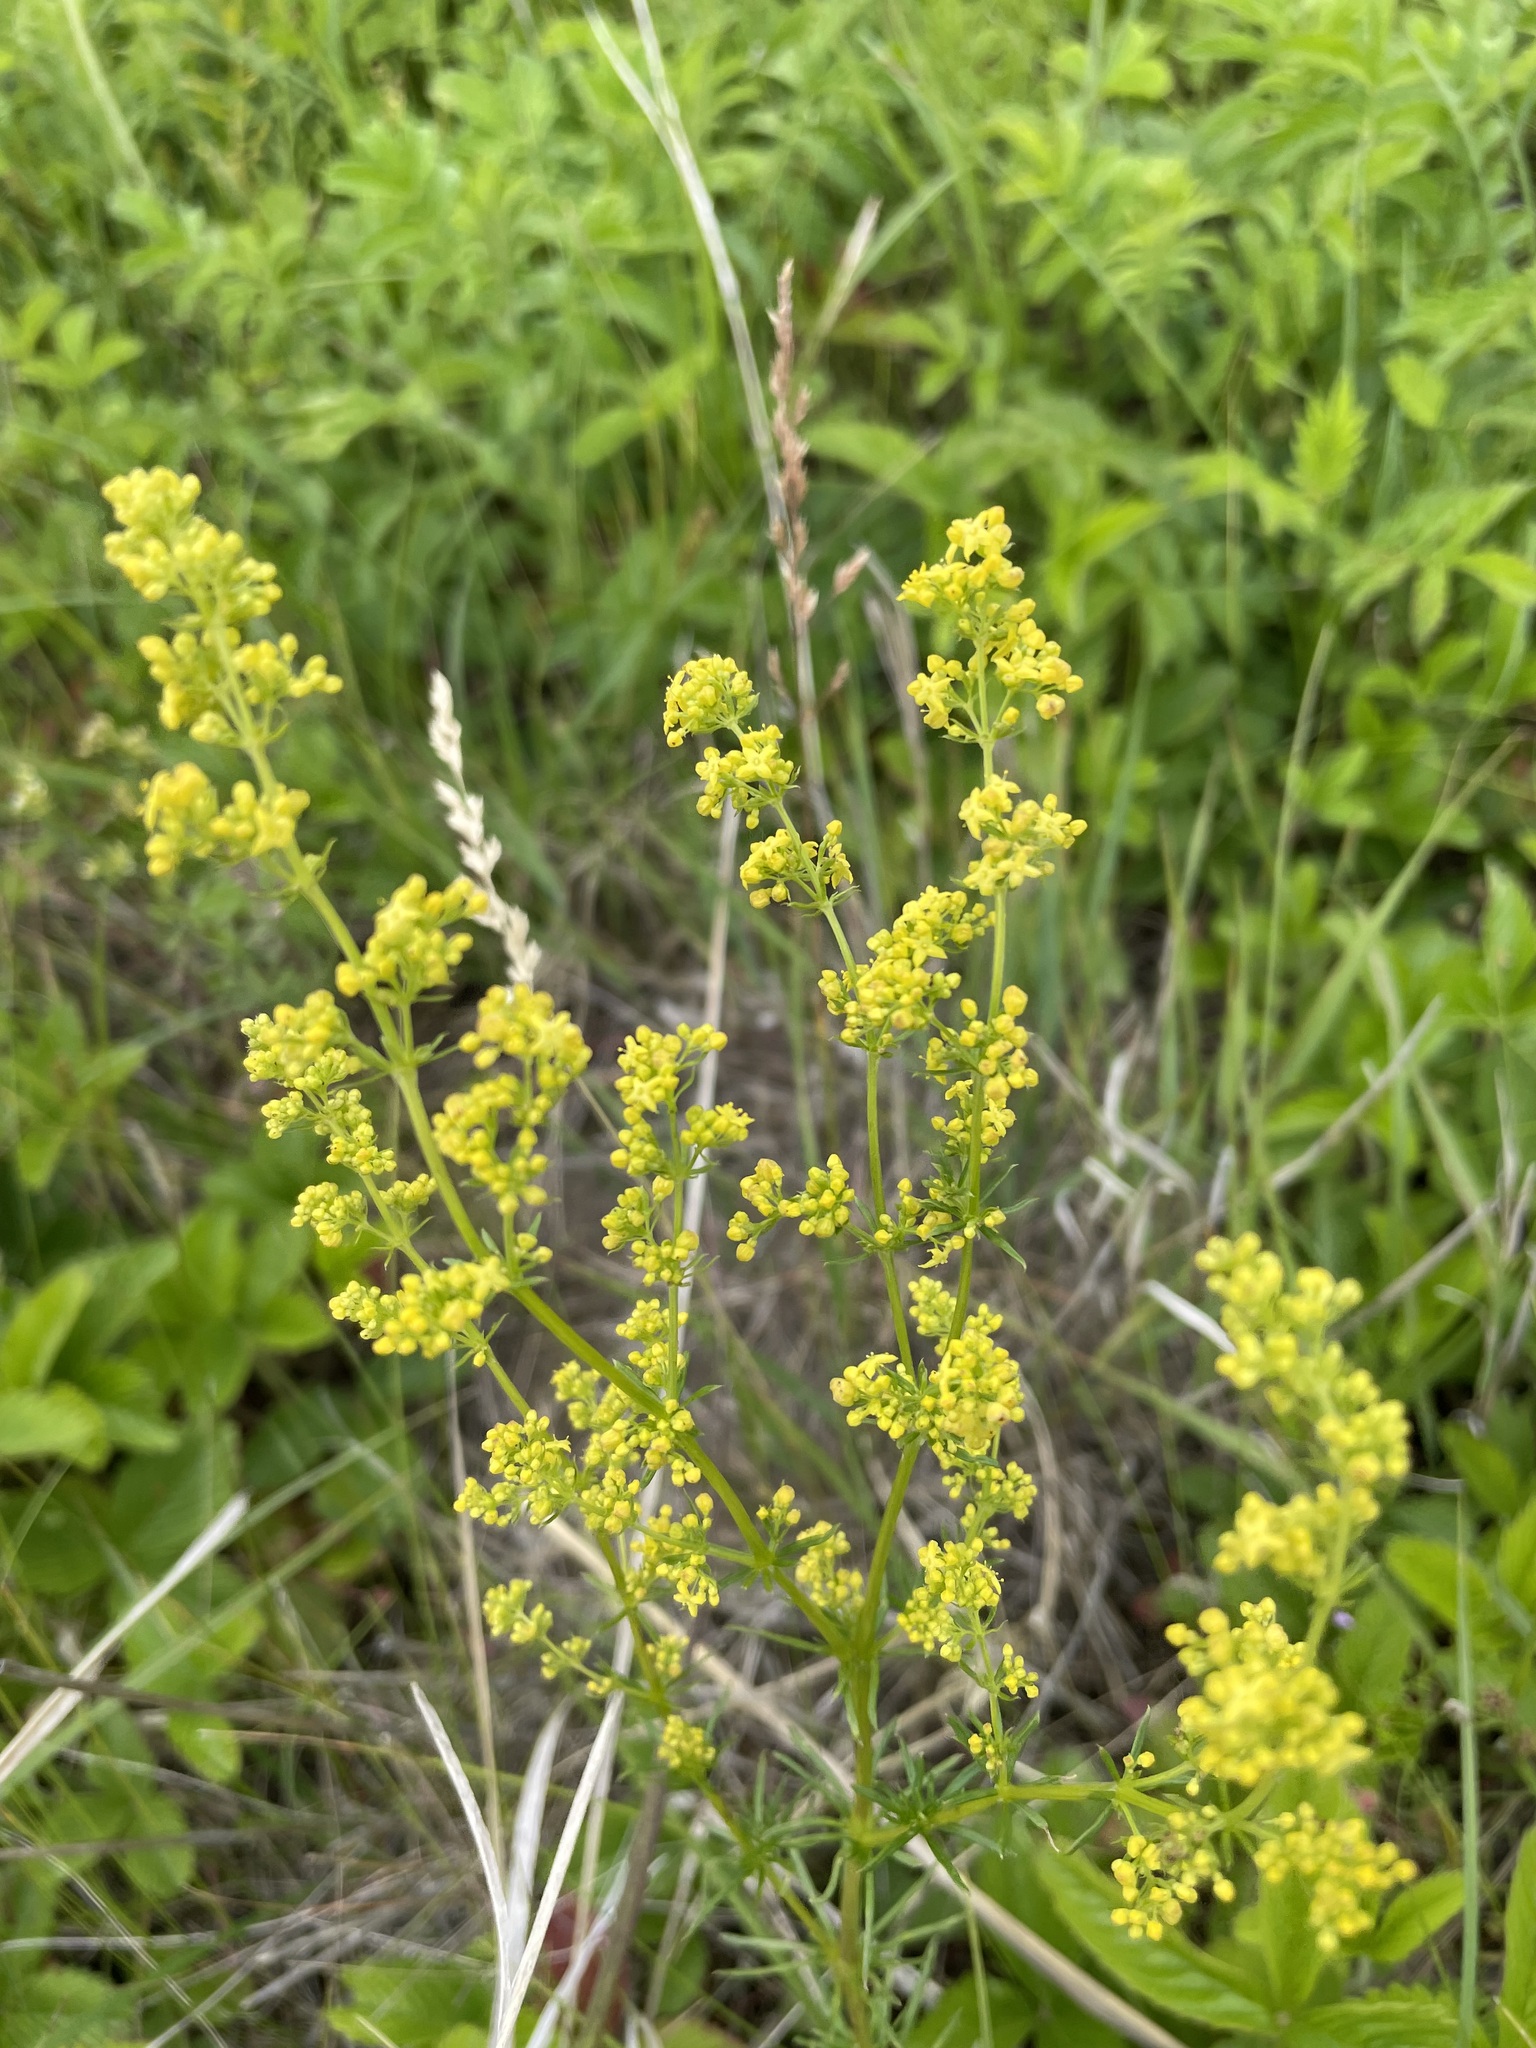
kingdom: Plantae
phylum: Tracheophyta
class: Magnoliopsida
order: Gentianales
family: Rubiaceae
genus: Galium
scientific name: Galium verum
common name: Lady's bedstraw
